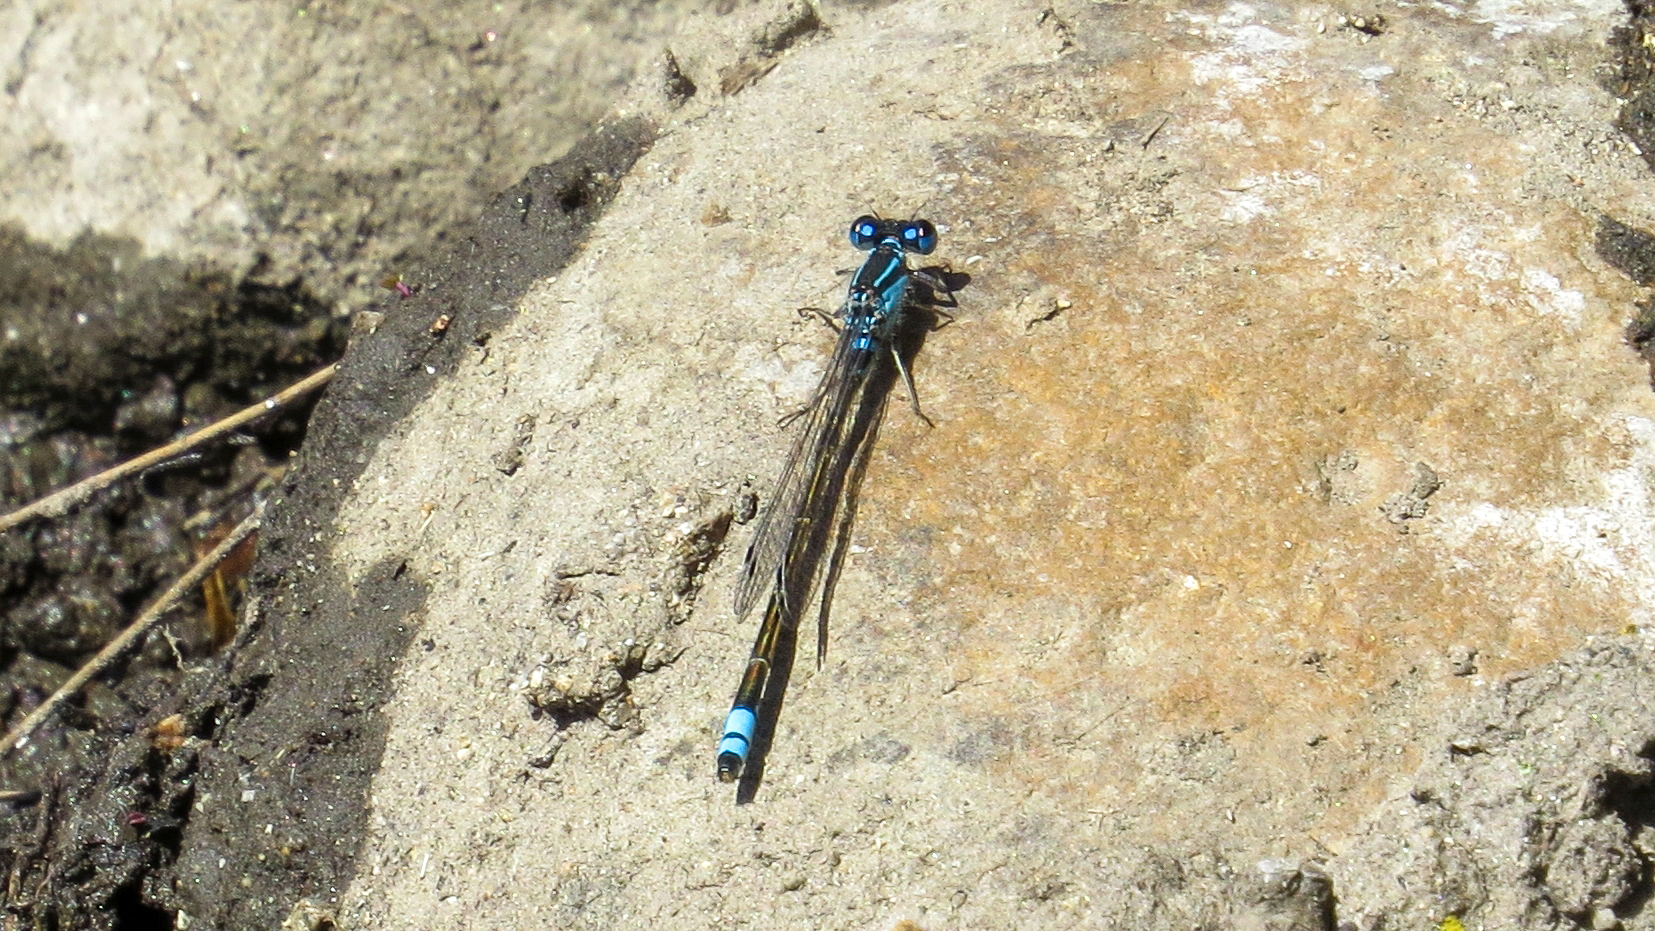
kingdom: Animalia
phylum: Arthropoda
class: Insecta
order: Odonata
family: Coenagrionidae
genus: Ischnura
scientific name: Ischnura heterosticta
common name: Common bluetail
